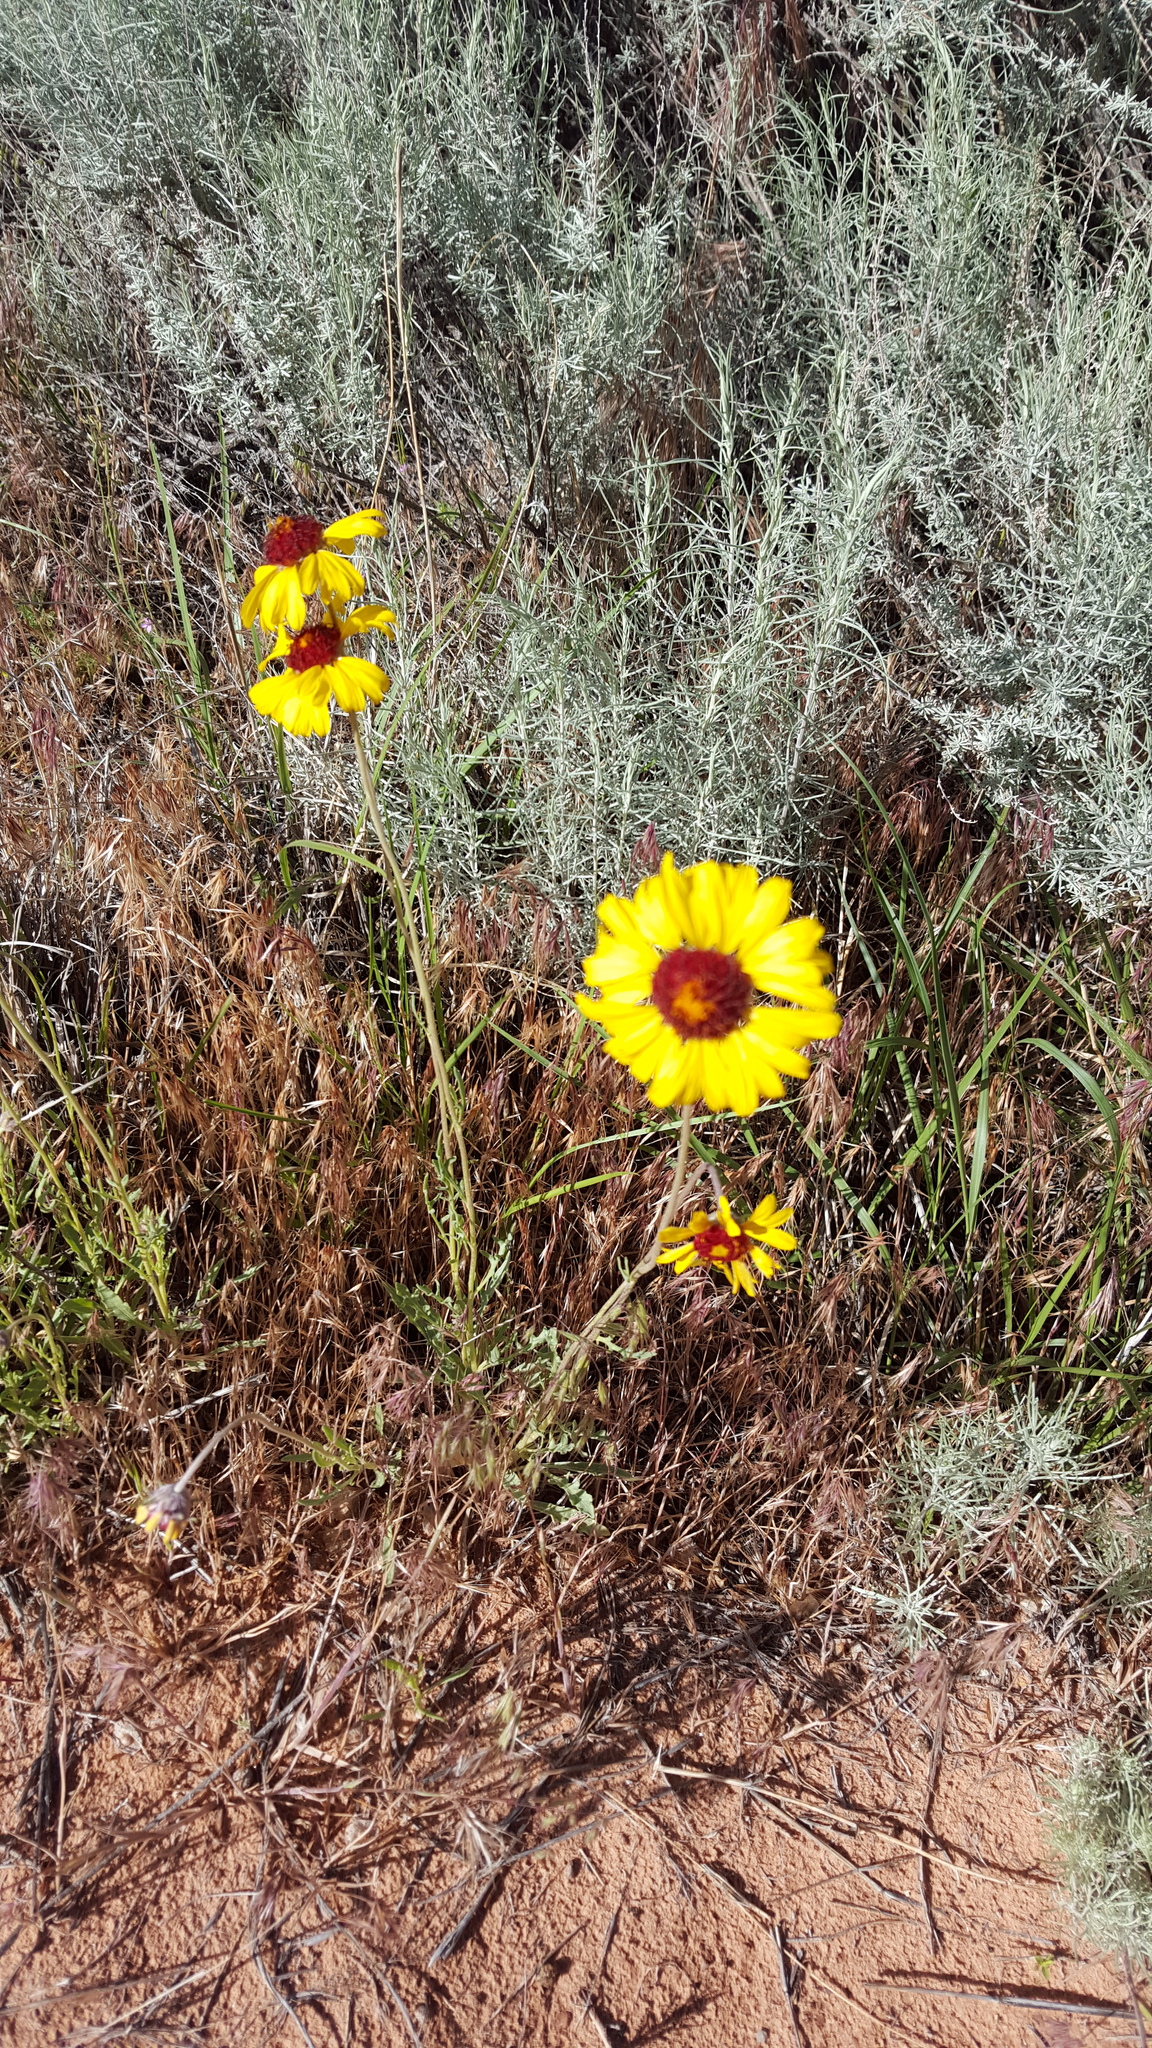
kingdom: Plantae
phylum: Tracheophyta
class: Magnoliopsida
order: Asterales
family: Asteraceae
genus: Gaillardia
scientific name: Gaillardia pinnatifida
